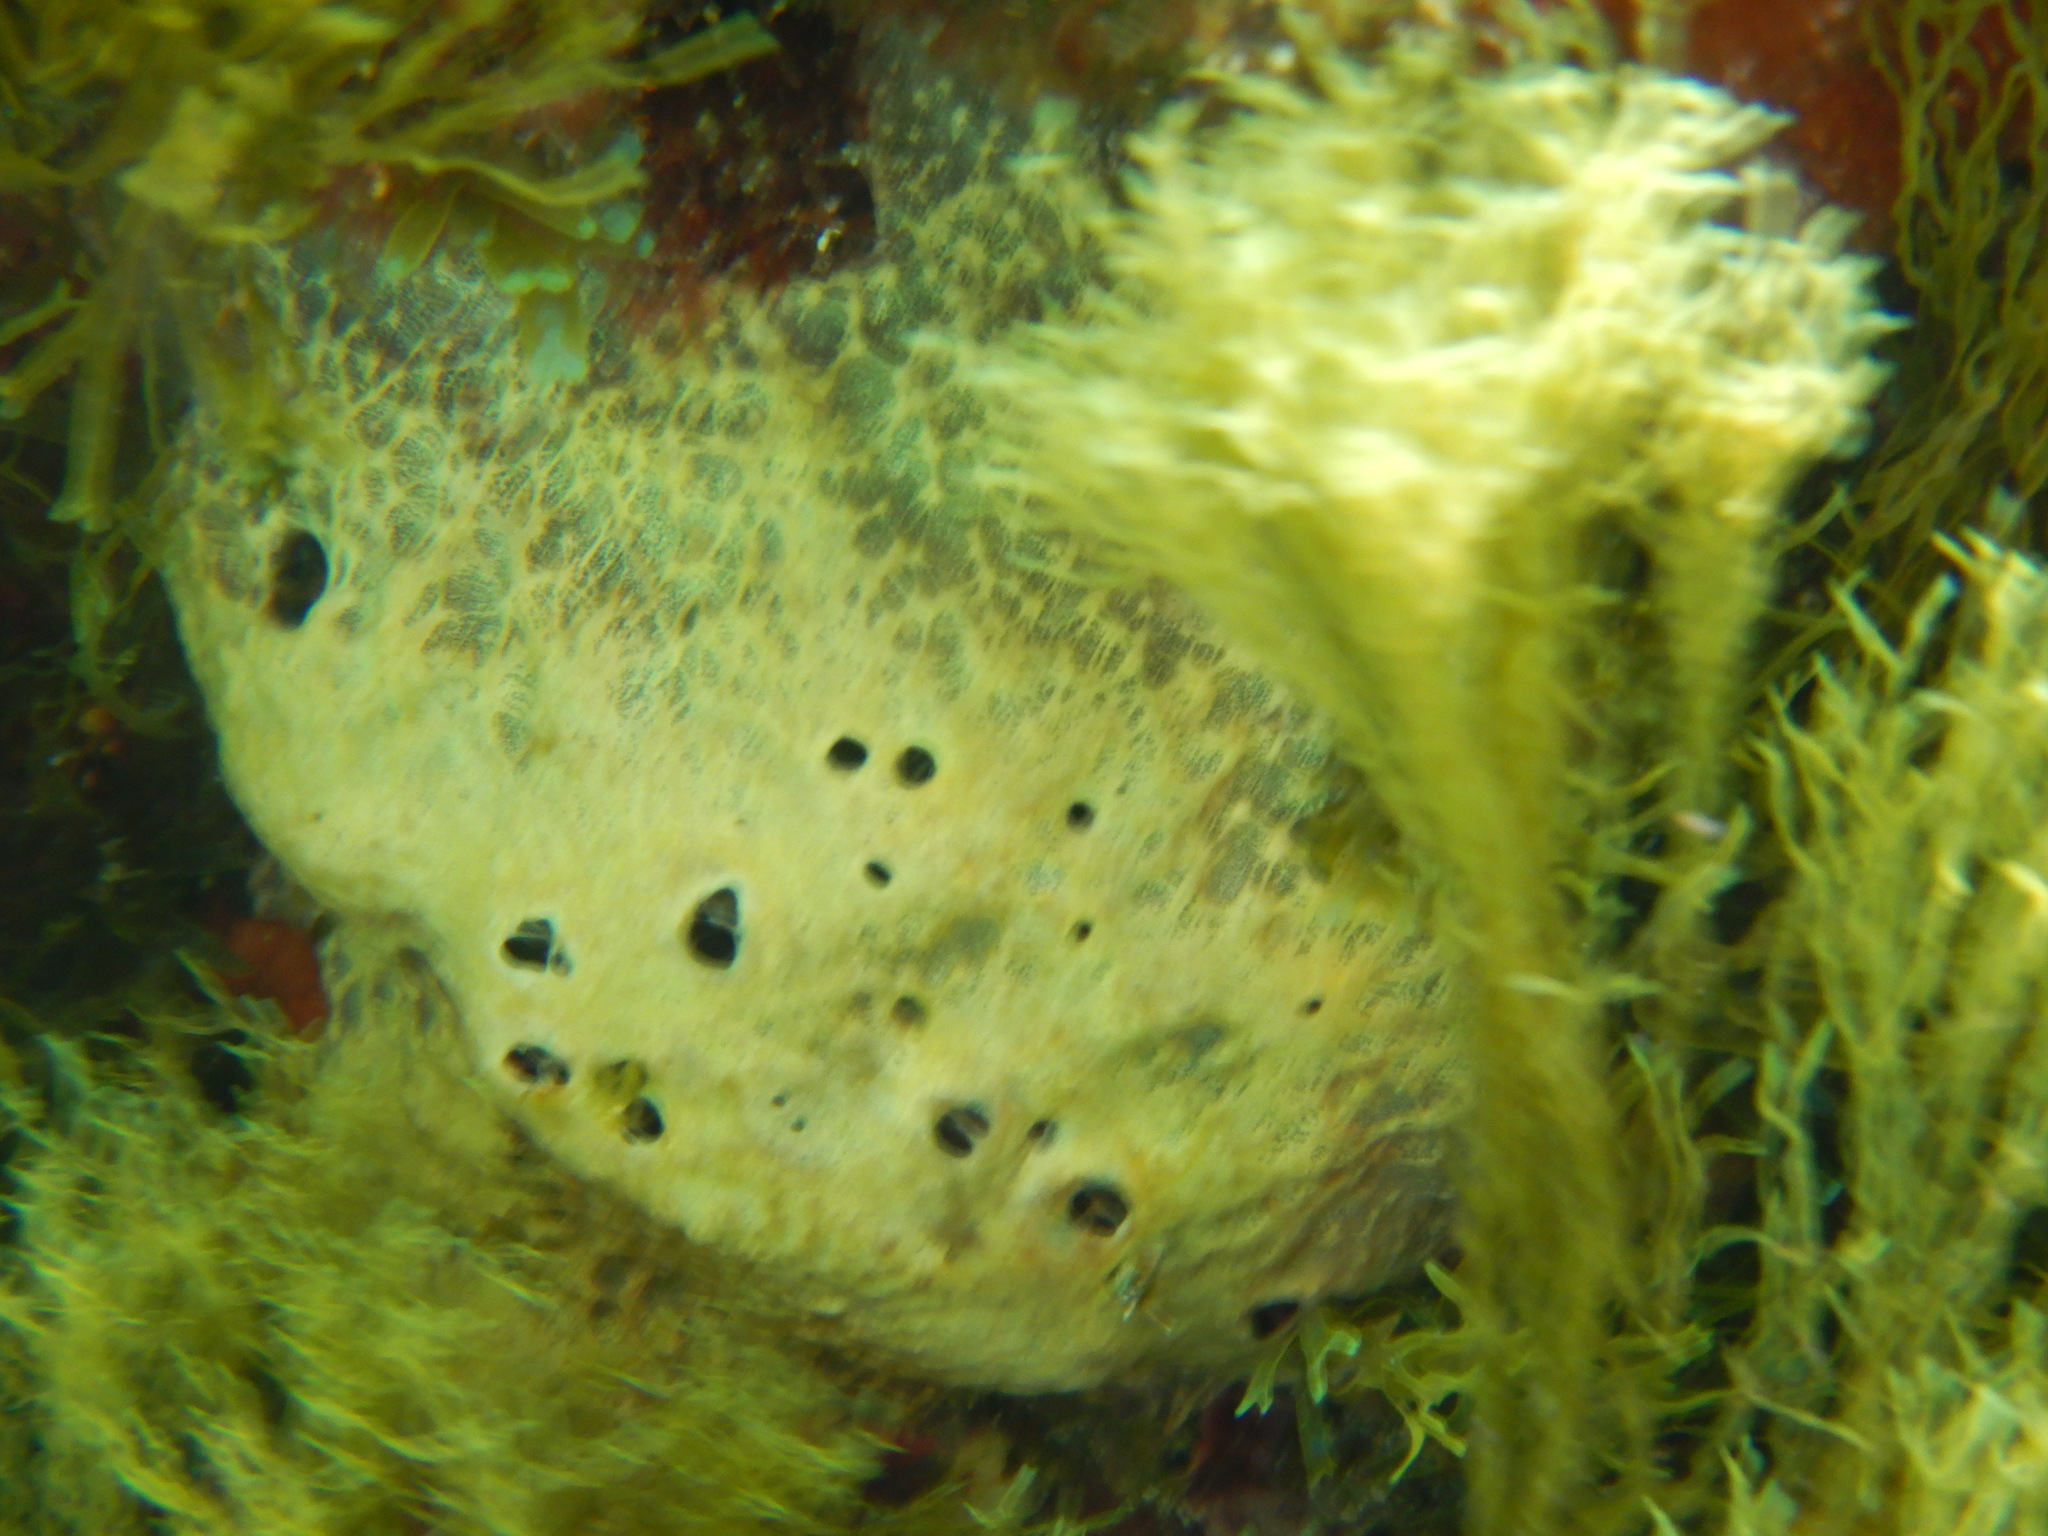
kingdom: Animalia
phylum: Porifera
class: Demospongiae
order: Dictyoceratida
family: Irciniidae
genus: Sarcotragus
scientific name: Sarcotragus fasciculatus
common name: Stinker sponge
